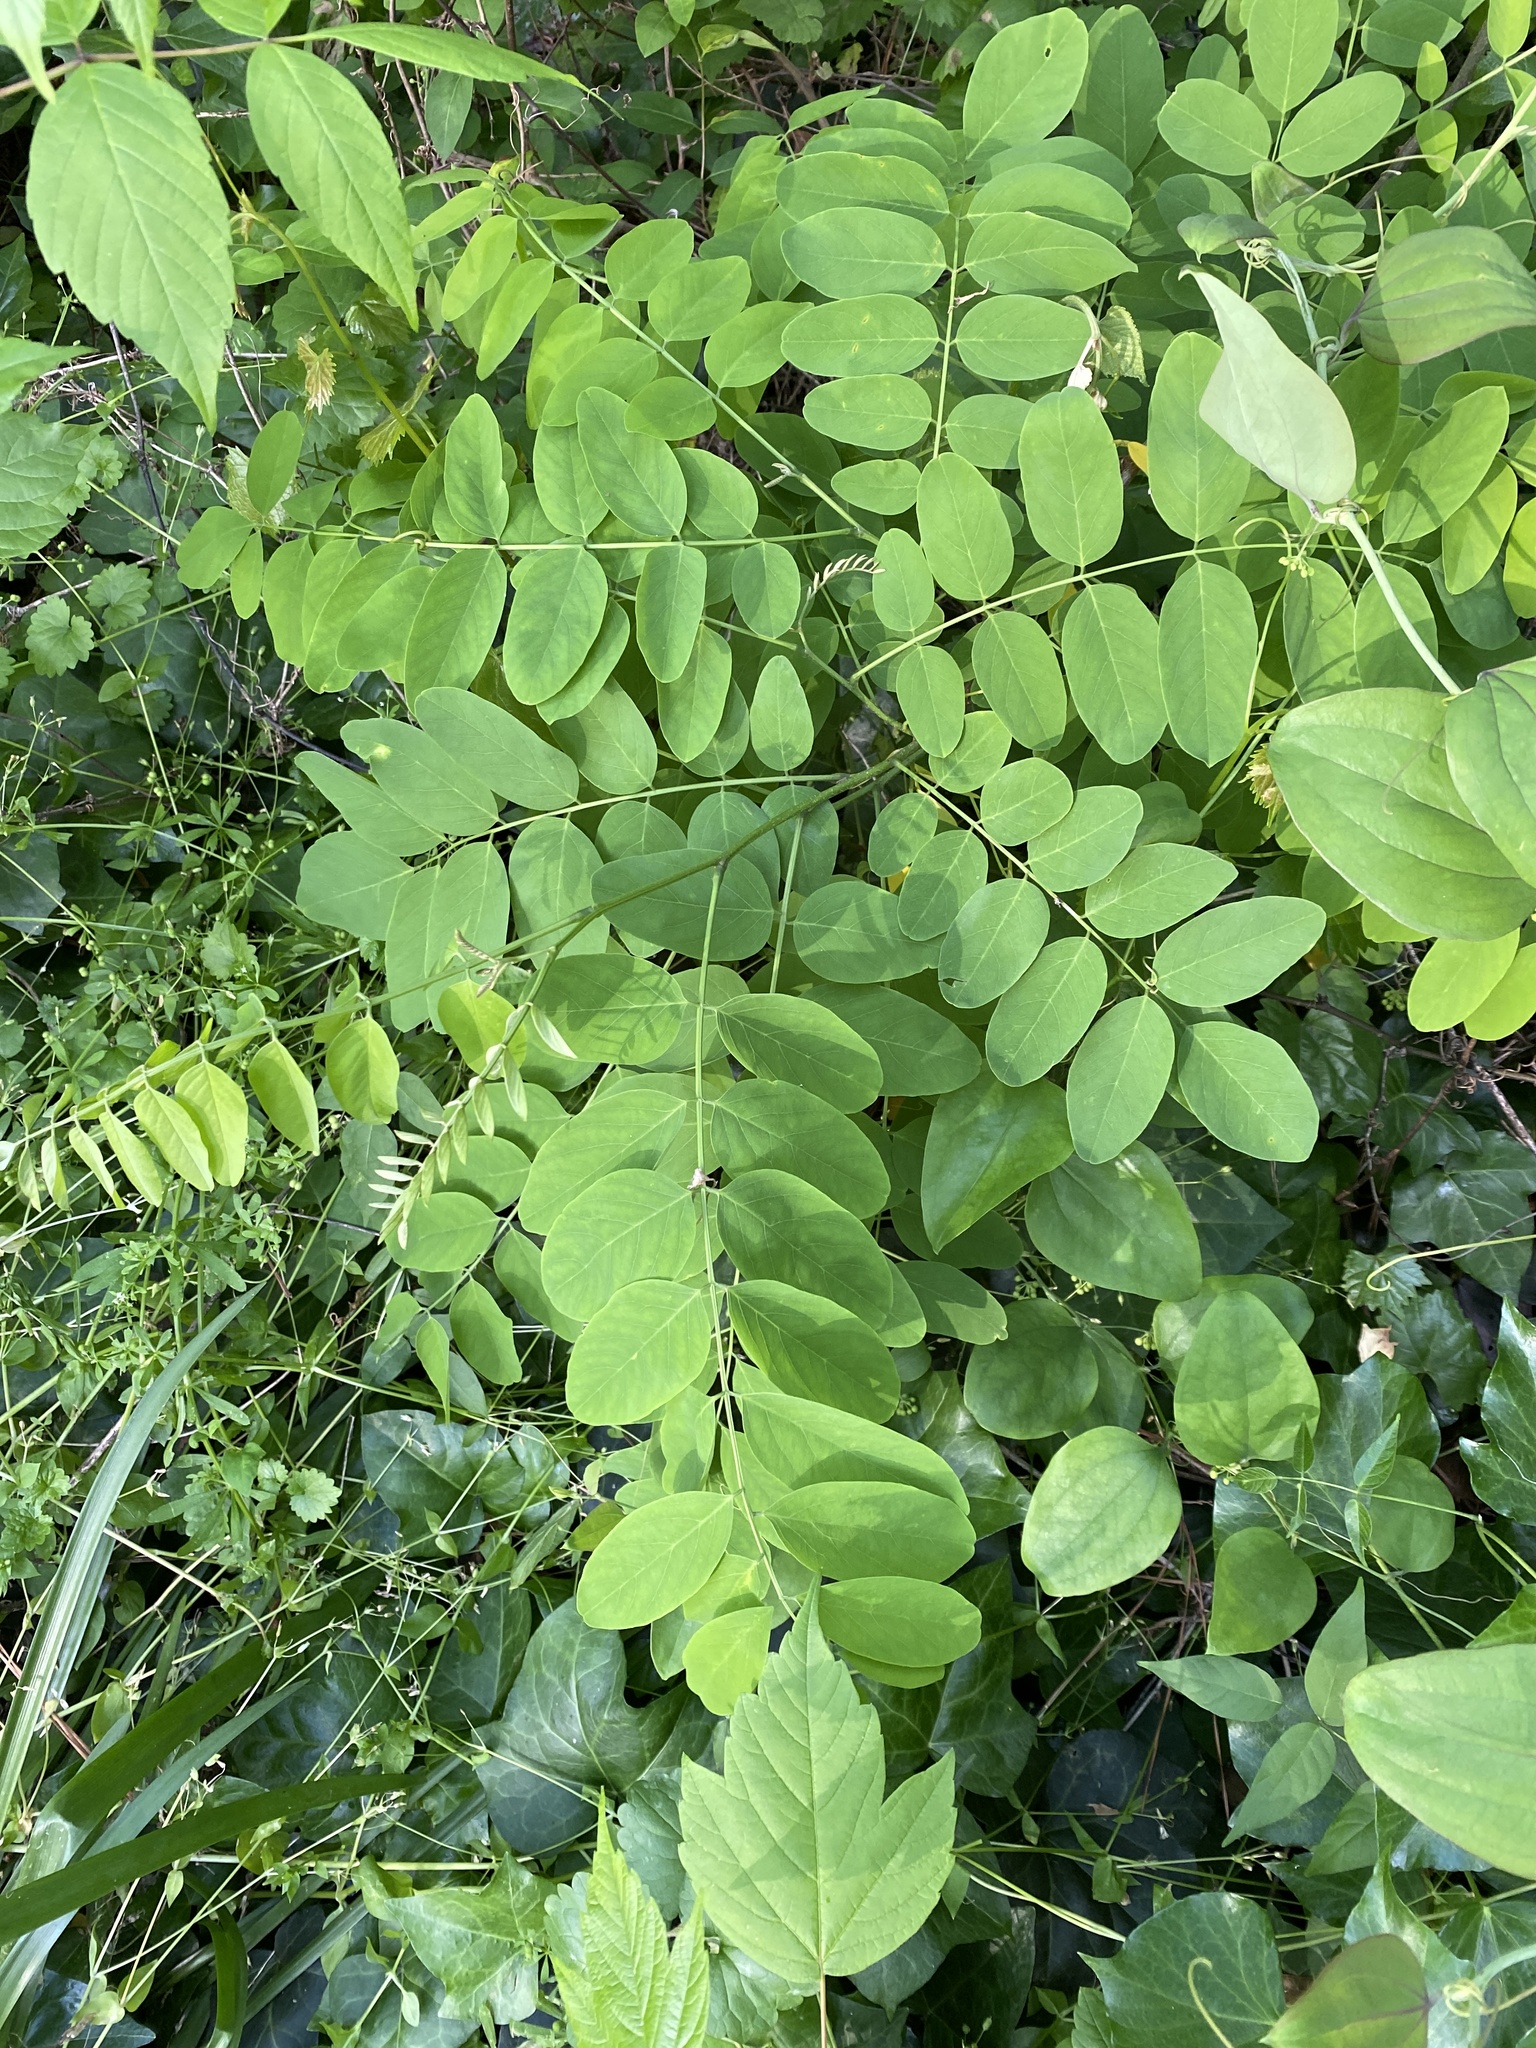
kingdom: Plantae
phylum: Tracheophyta
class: Magnoliopsida
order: Fabales
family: Fabaceae
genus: Robinia
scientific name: Robinia pseudoacacia
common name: Black locust
